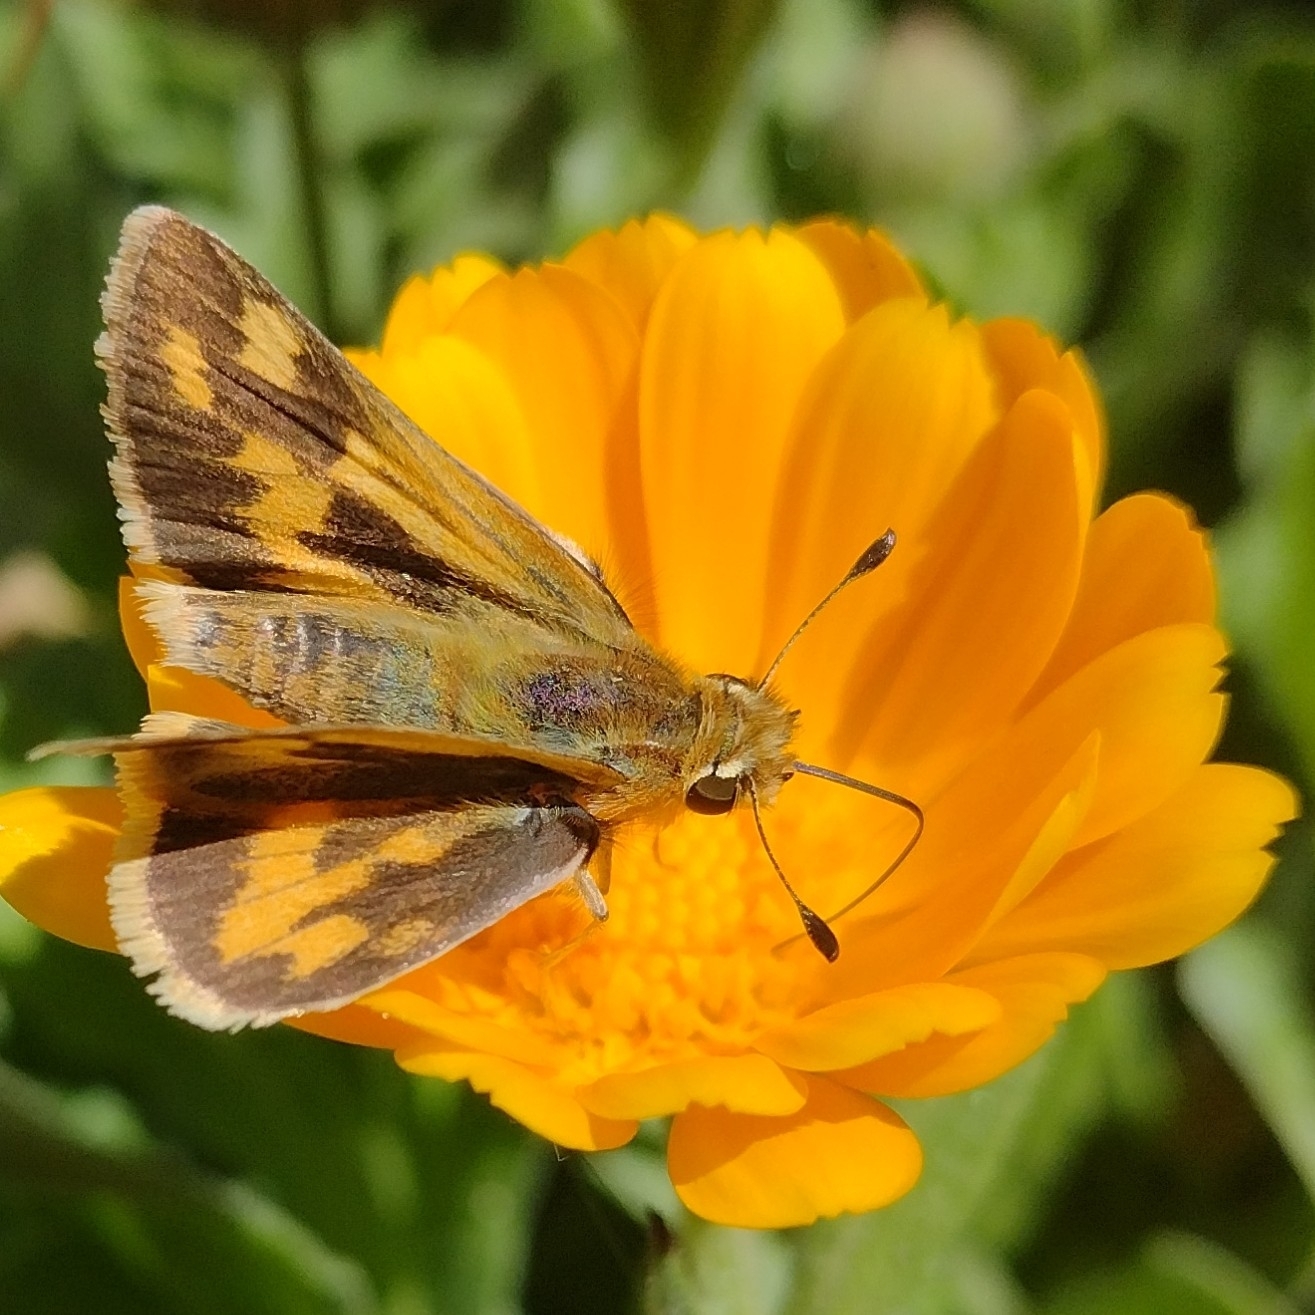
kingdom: Animalia
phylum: Arthropoda
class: Insecta
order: Lepidoptera
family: Hesperiidae
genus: Hylephila
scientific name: Hylephila phyleus
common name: Fiery skipper
